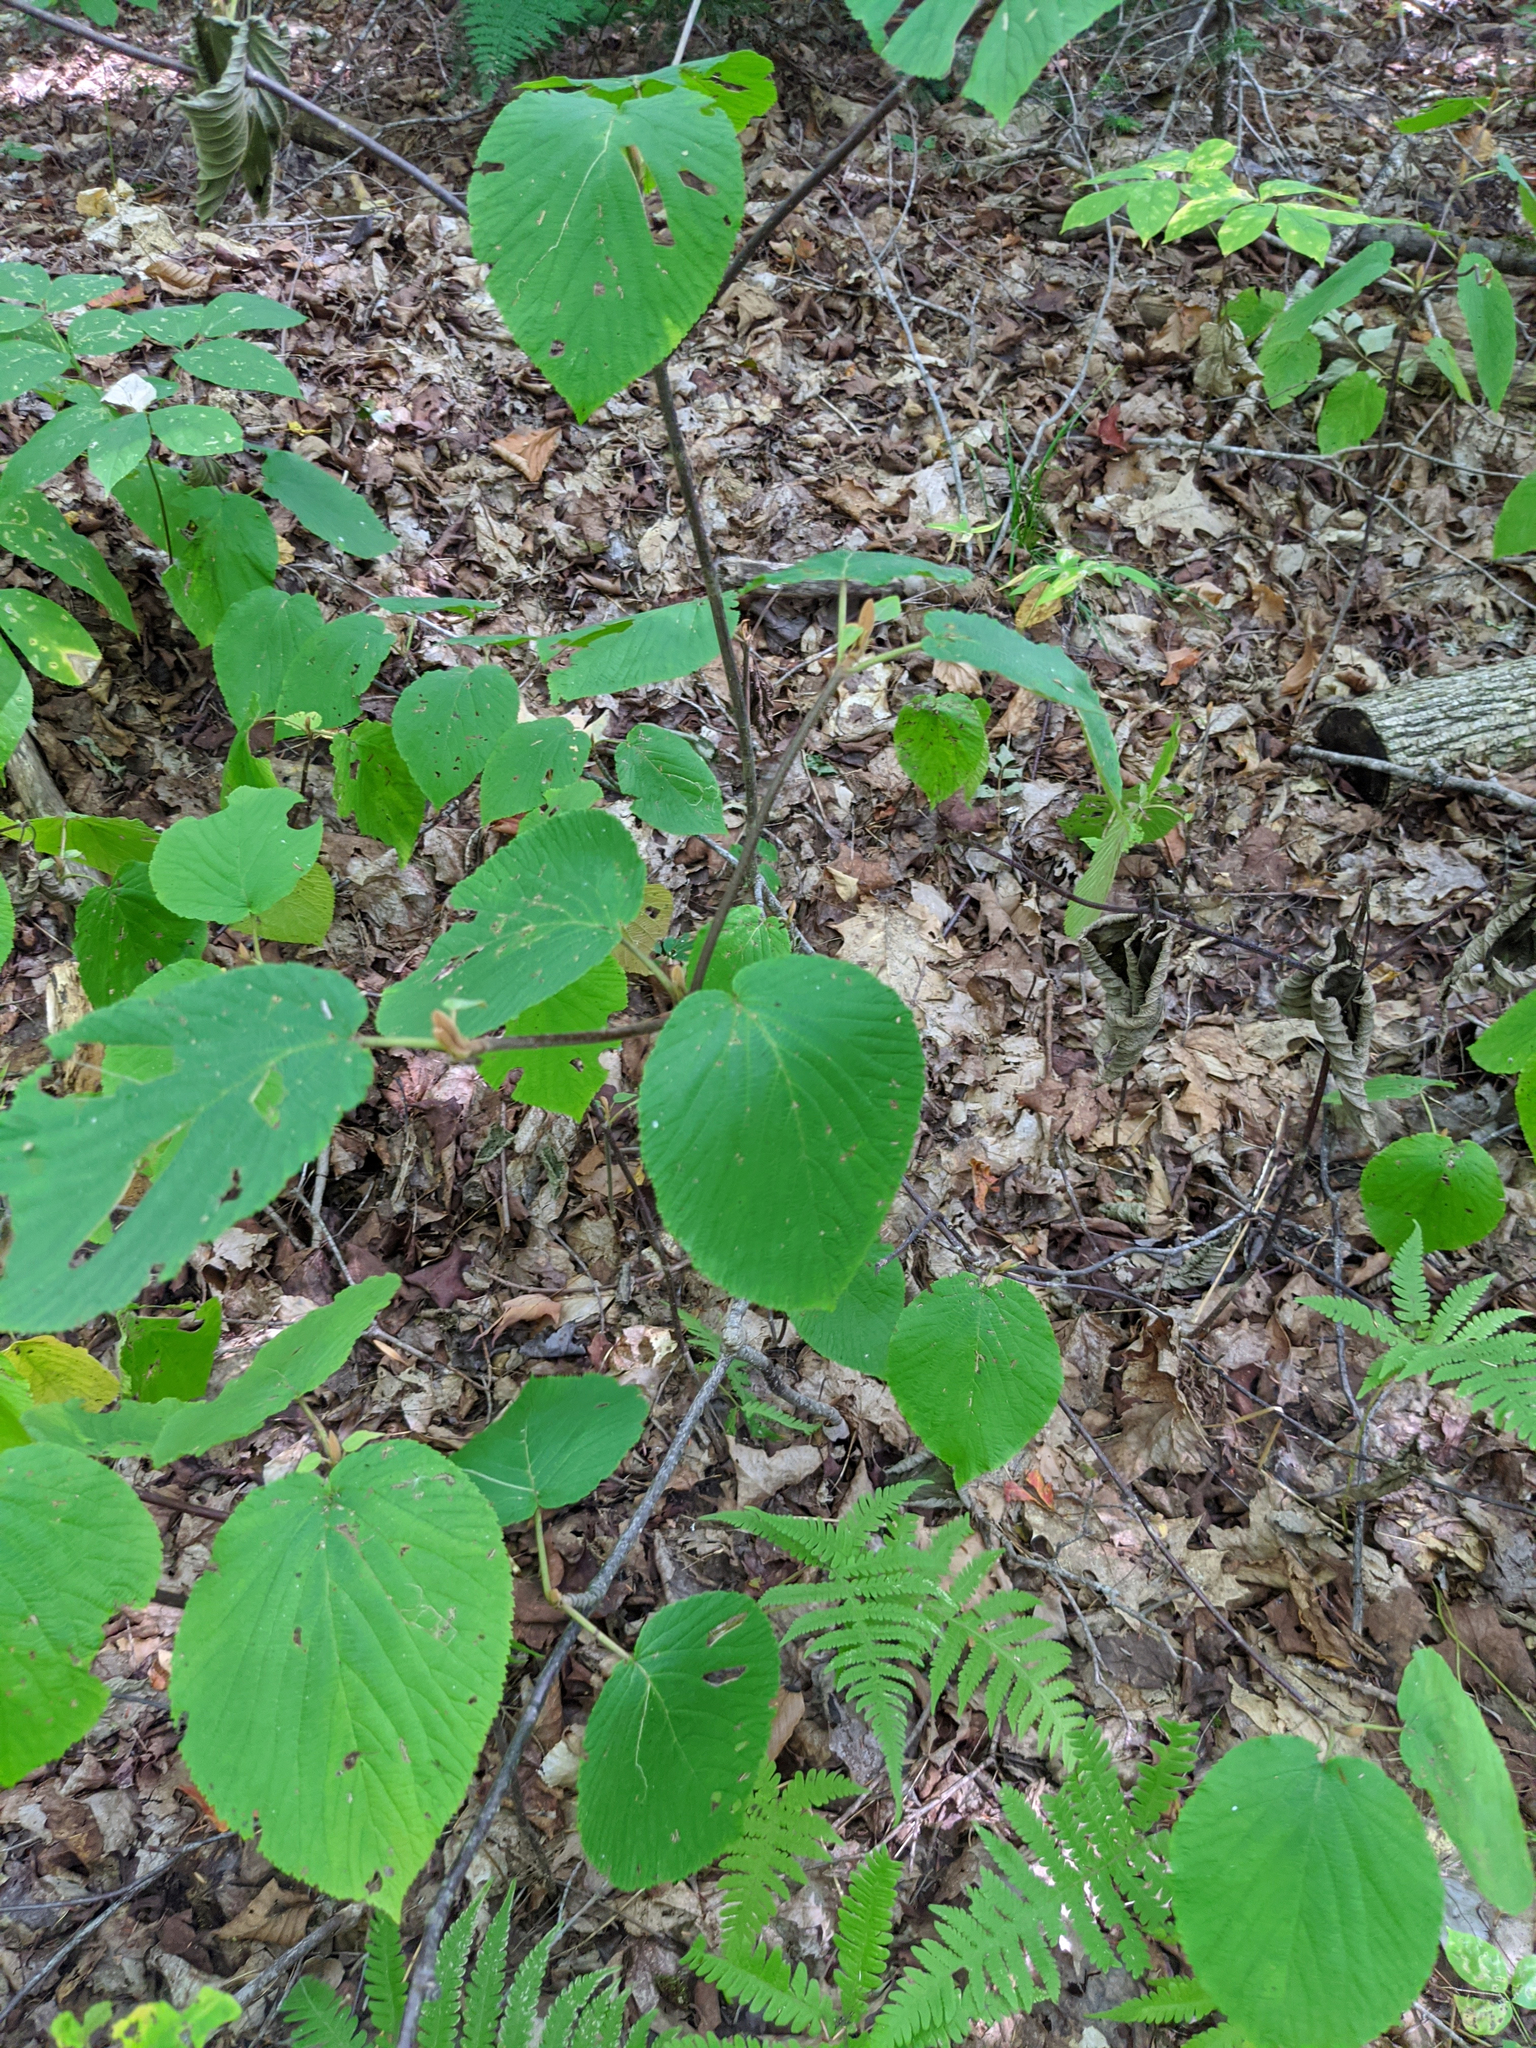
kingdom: Plantae
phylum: Tracheophyta
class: Magnoliopsida
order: Dipsacales
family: Viburnaceae
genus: Viburnum
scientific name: Viburnum lantanoides
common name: Hobblebush
